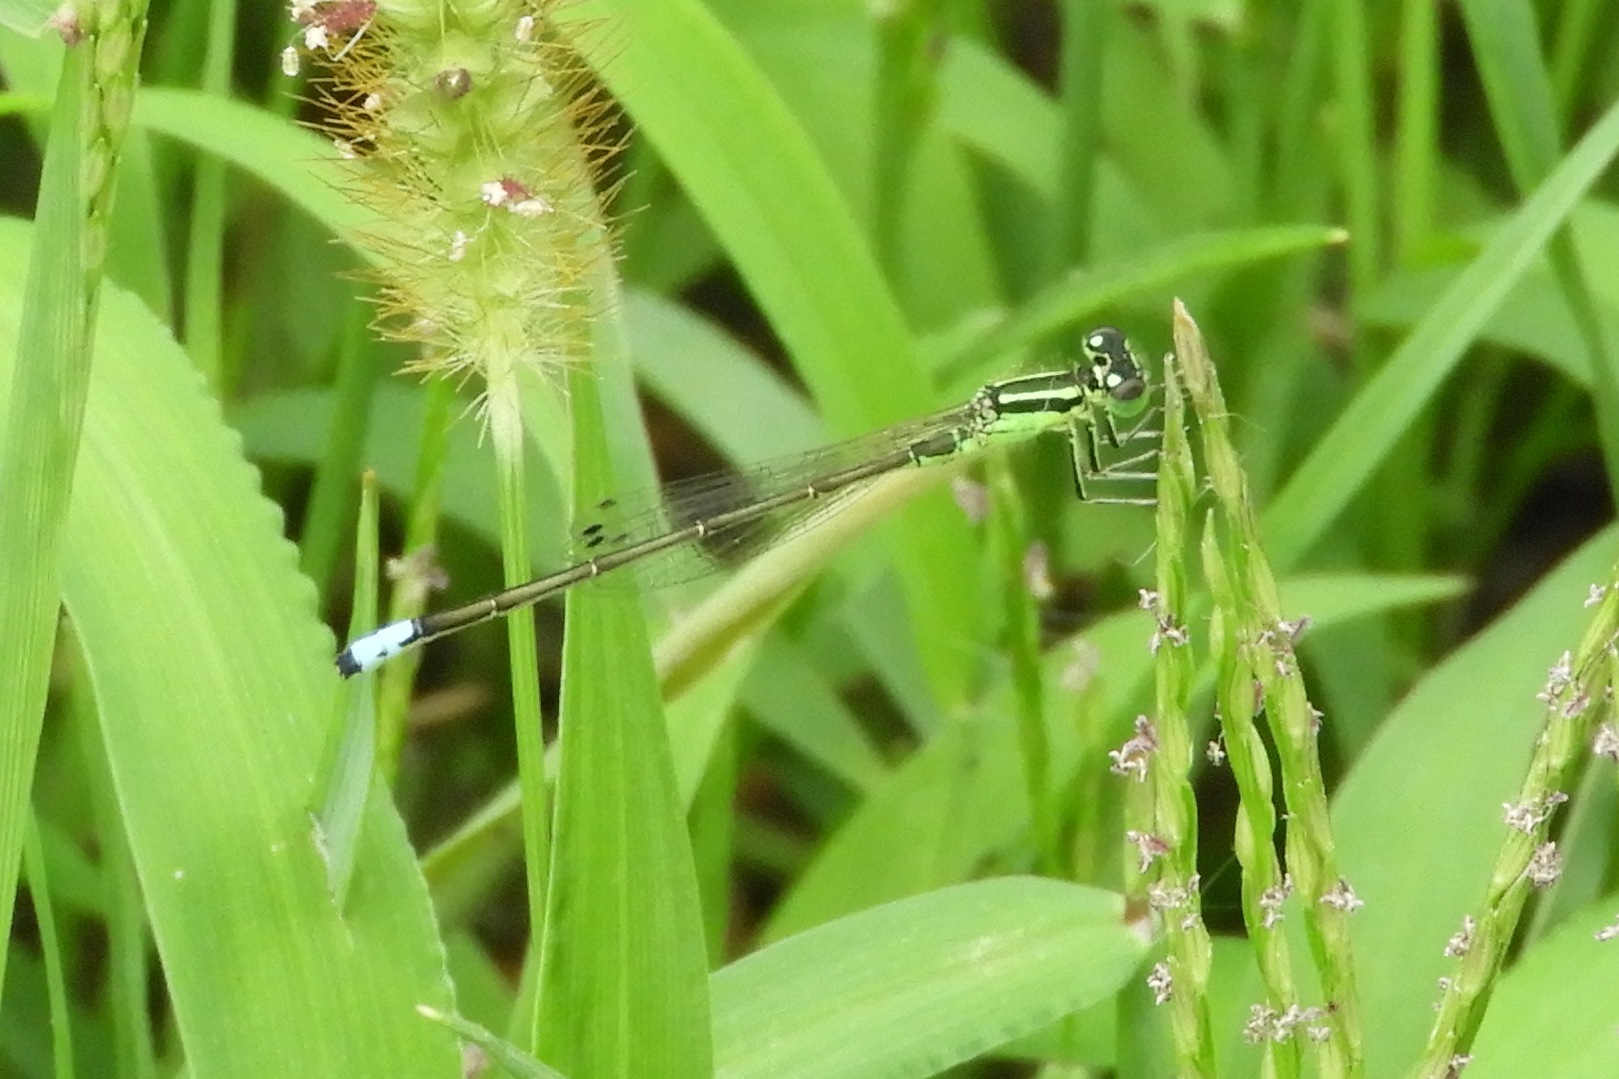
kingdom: Animalia
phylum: Arthropoda
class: Insecta
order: Odonata
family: Coenagrionidae
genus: Ischnura
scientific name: Ischnura verticalis
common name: Eastern forktail
